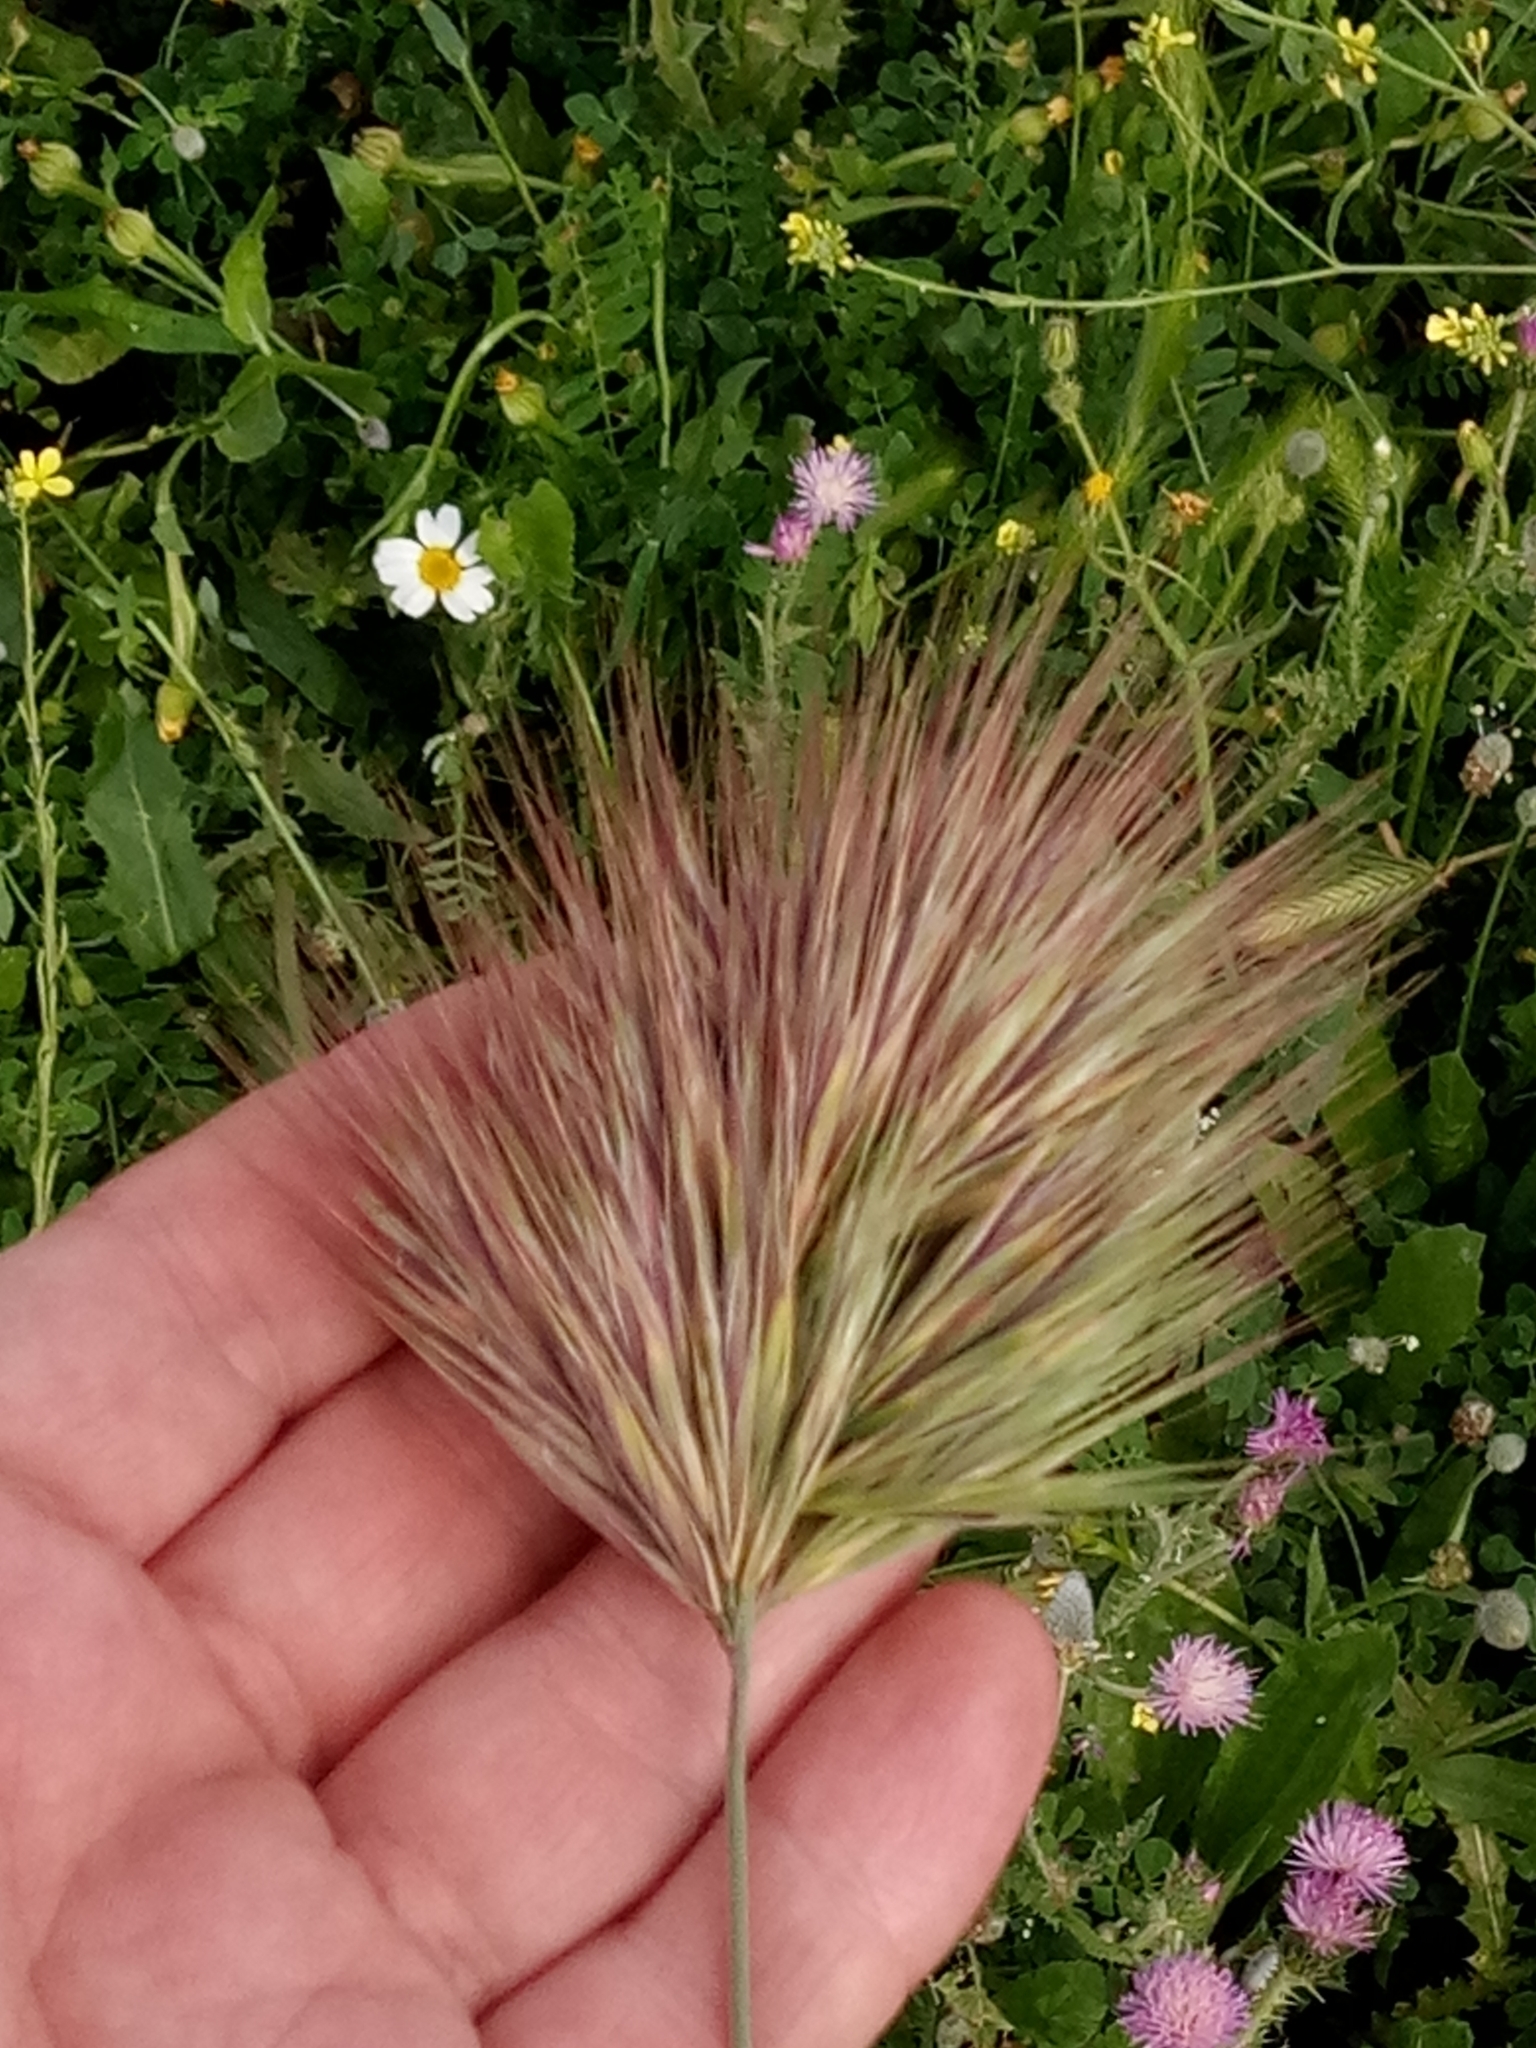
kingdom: Plantae
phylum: Tracheophyta
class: Liliopsida
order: Poales
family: Poaceae
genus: Bromus
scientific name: Bromus rubens
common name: Red brome
